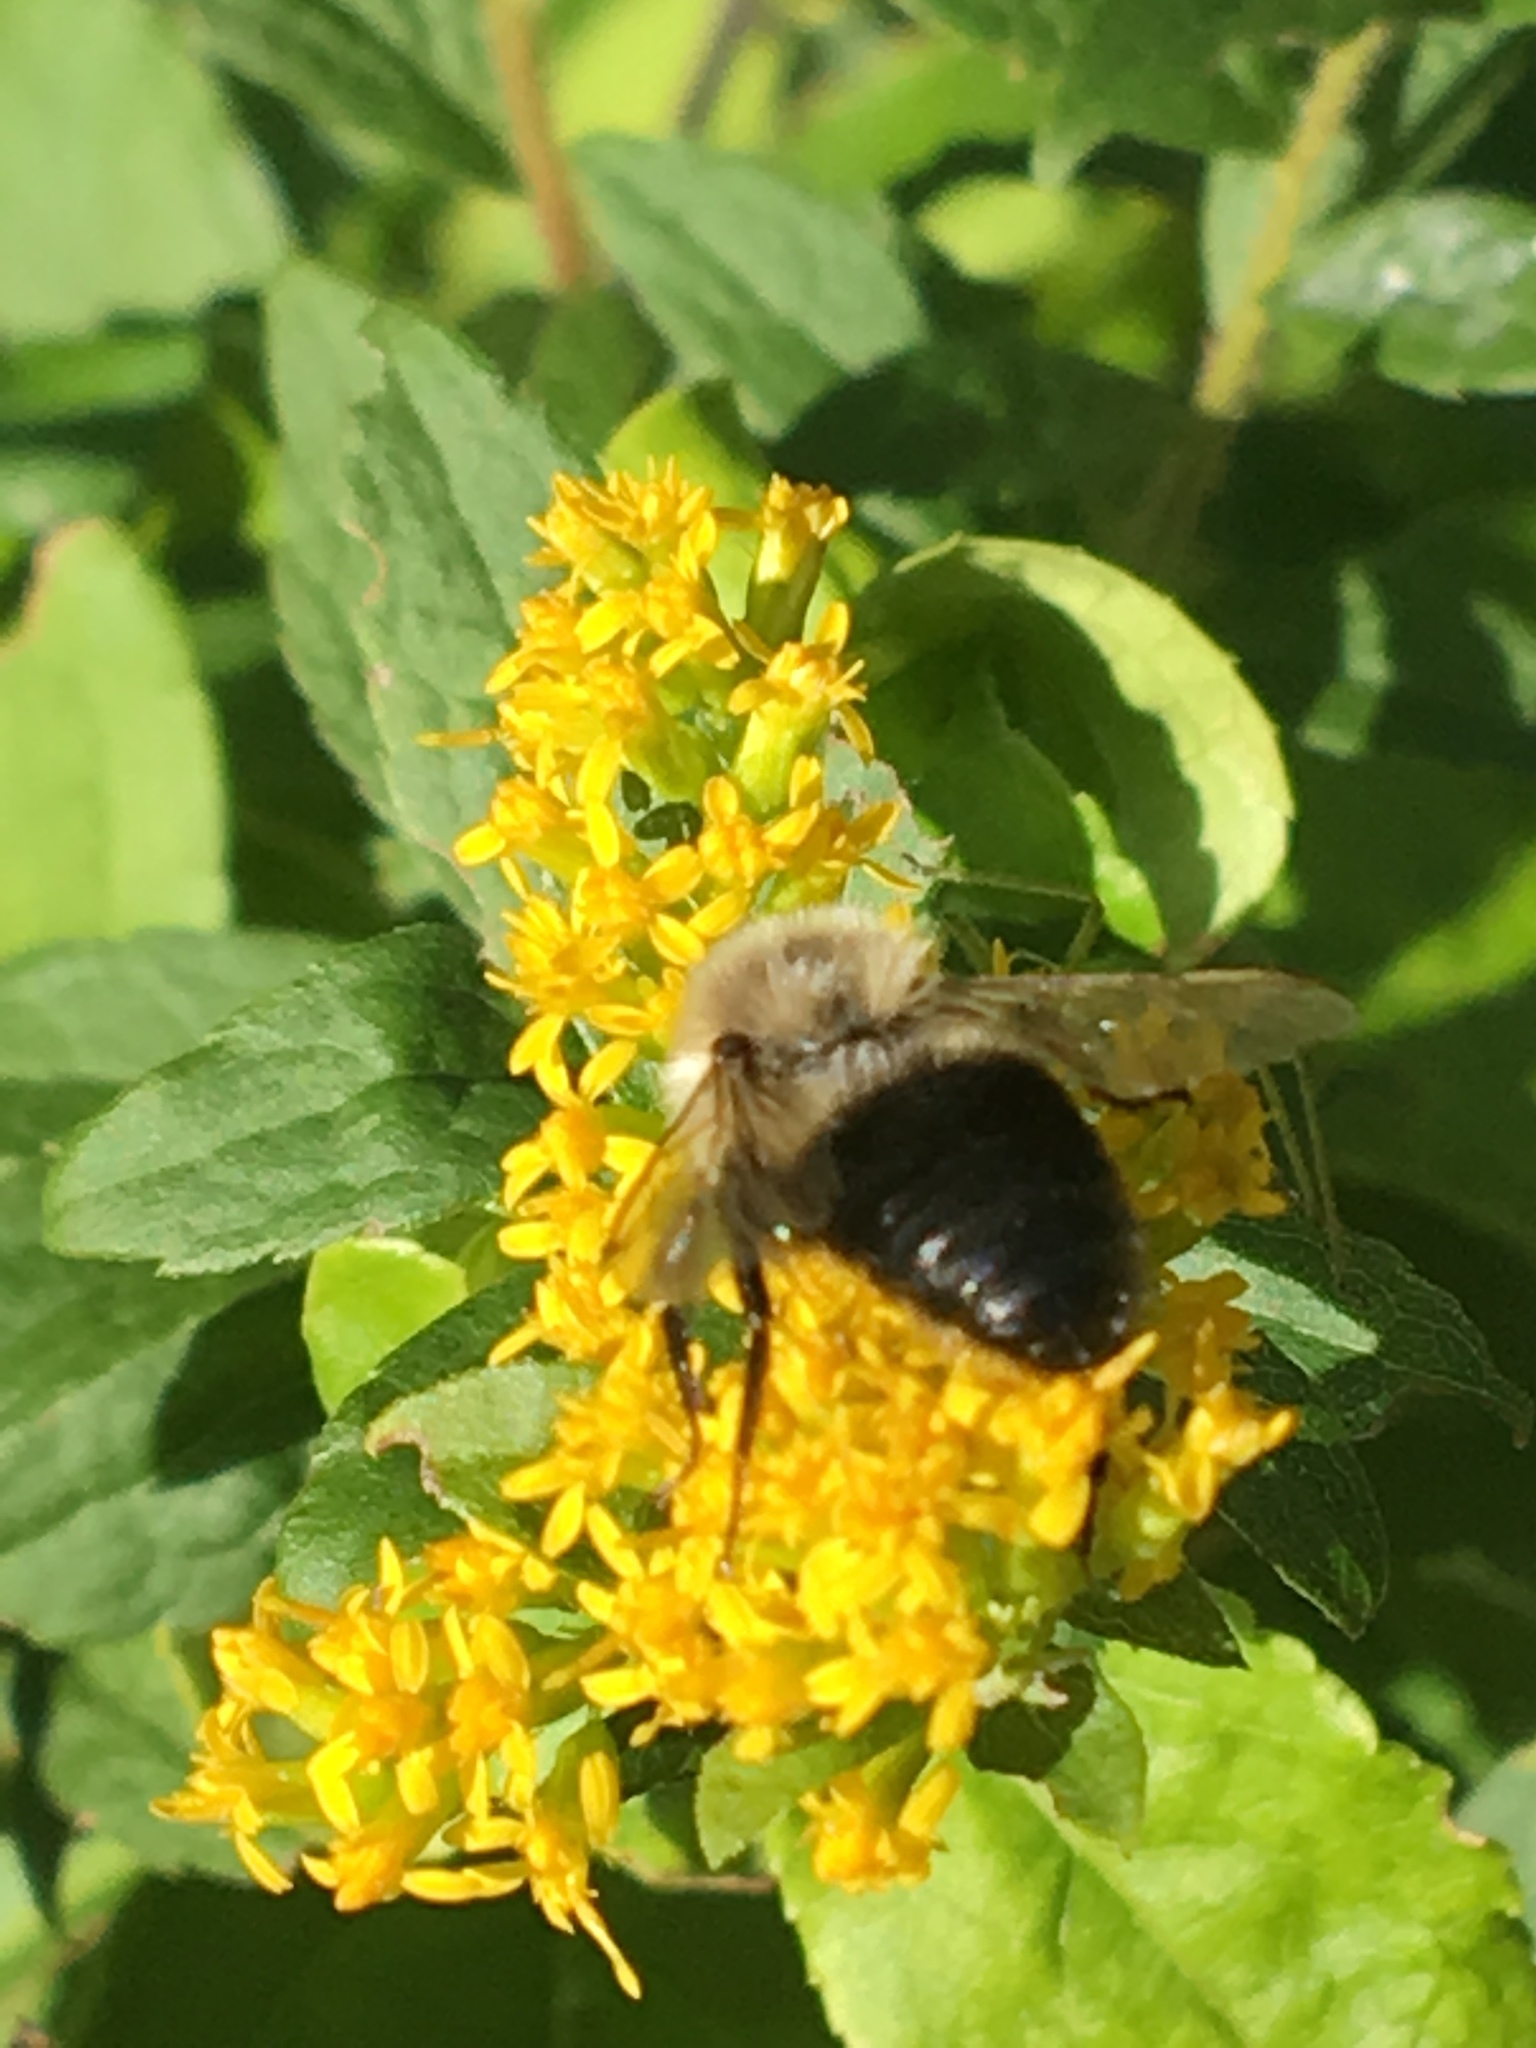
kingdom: Animalia
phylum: Arthropoda
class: Insecta
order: Hymenoptera
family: Apidae
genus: Bombus
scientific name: Bombus impatiens
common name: Common eastern bumble bee
